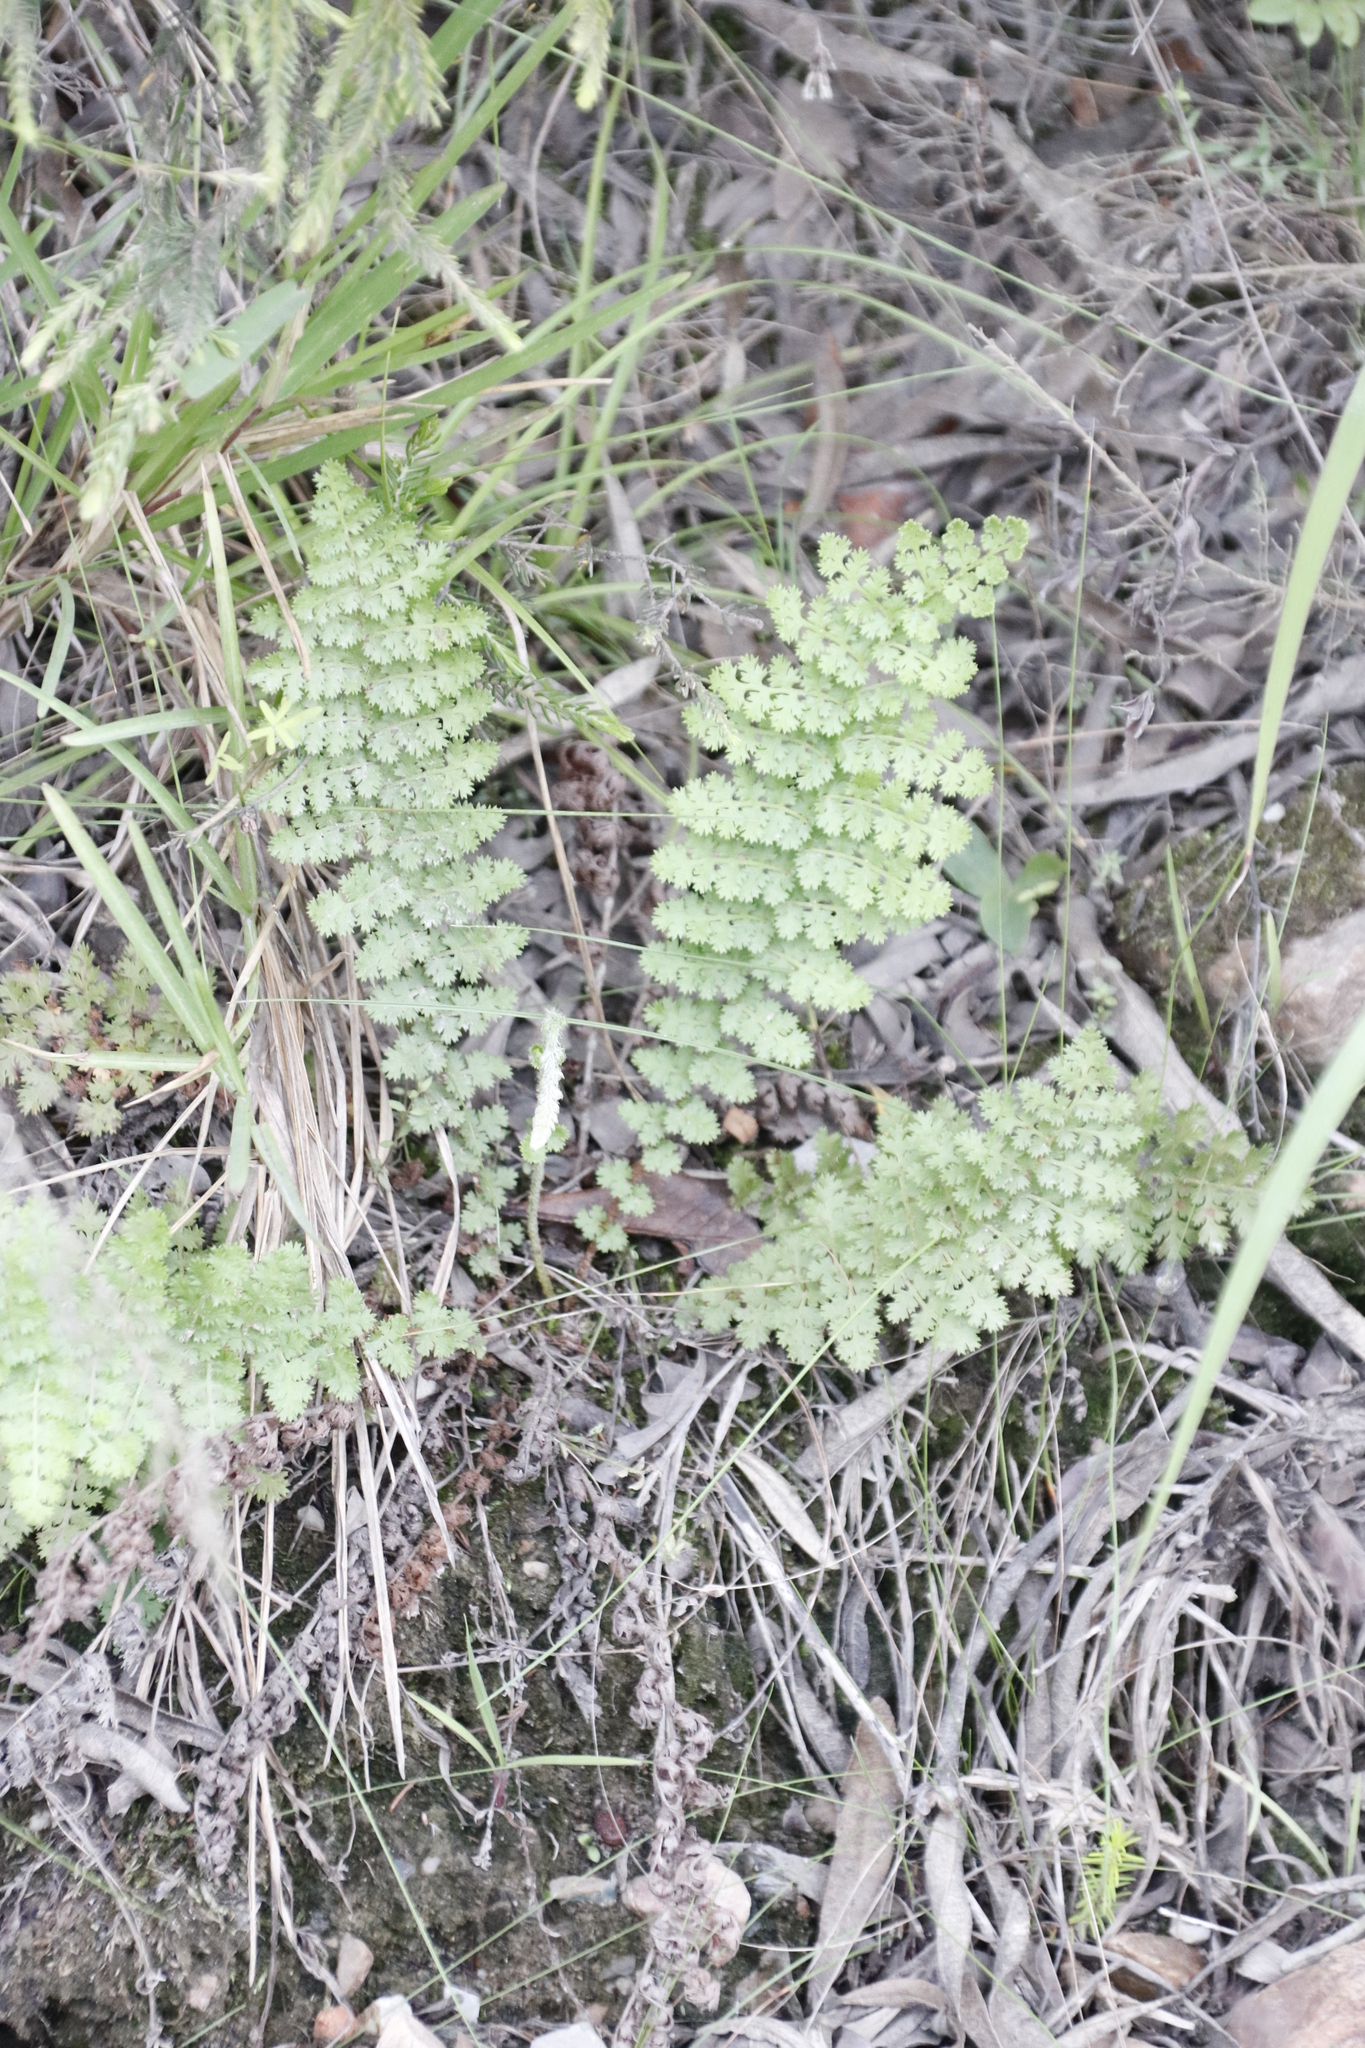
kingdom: Plantae
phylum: Tracheophyta
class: Polypodiopsida
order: Schizaeales
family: Anemiaceae
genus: Anemia
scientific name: Anemia caffrorum
